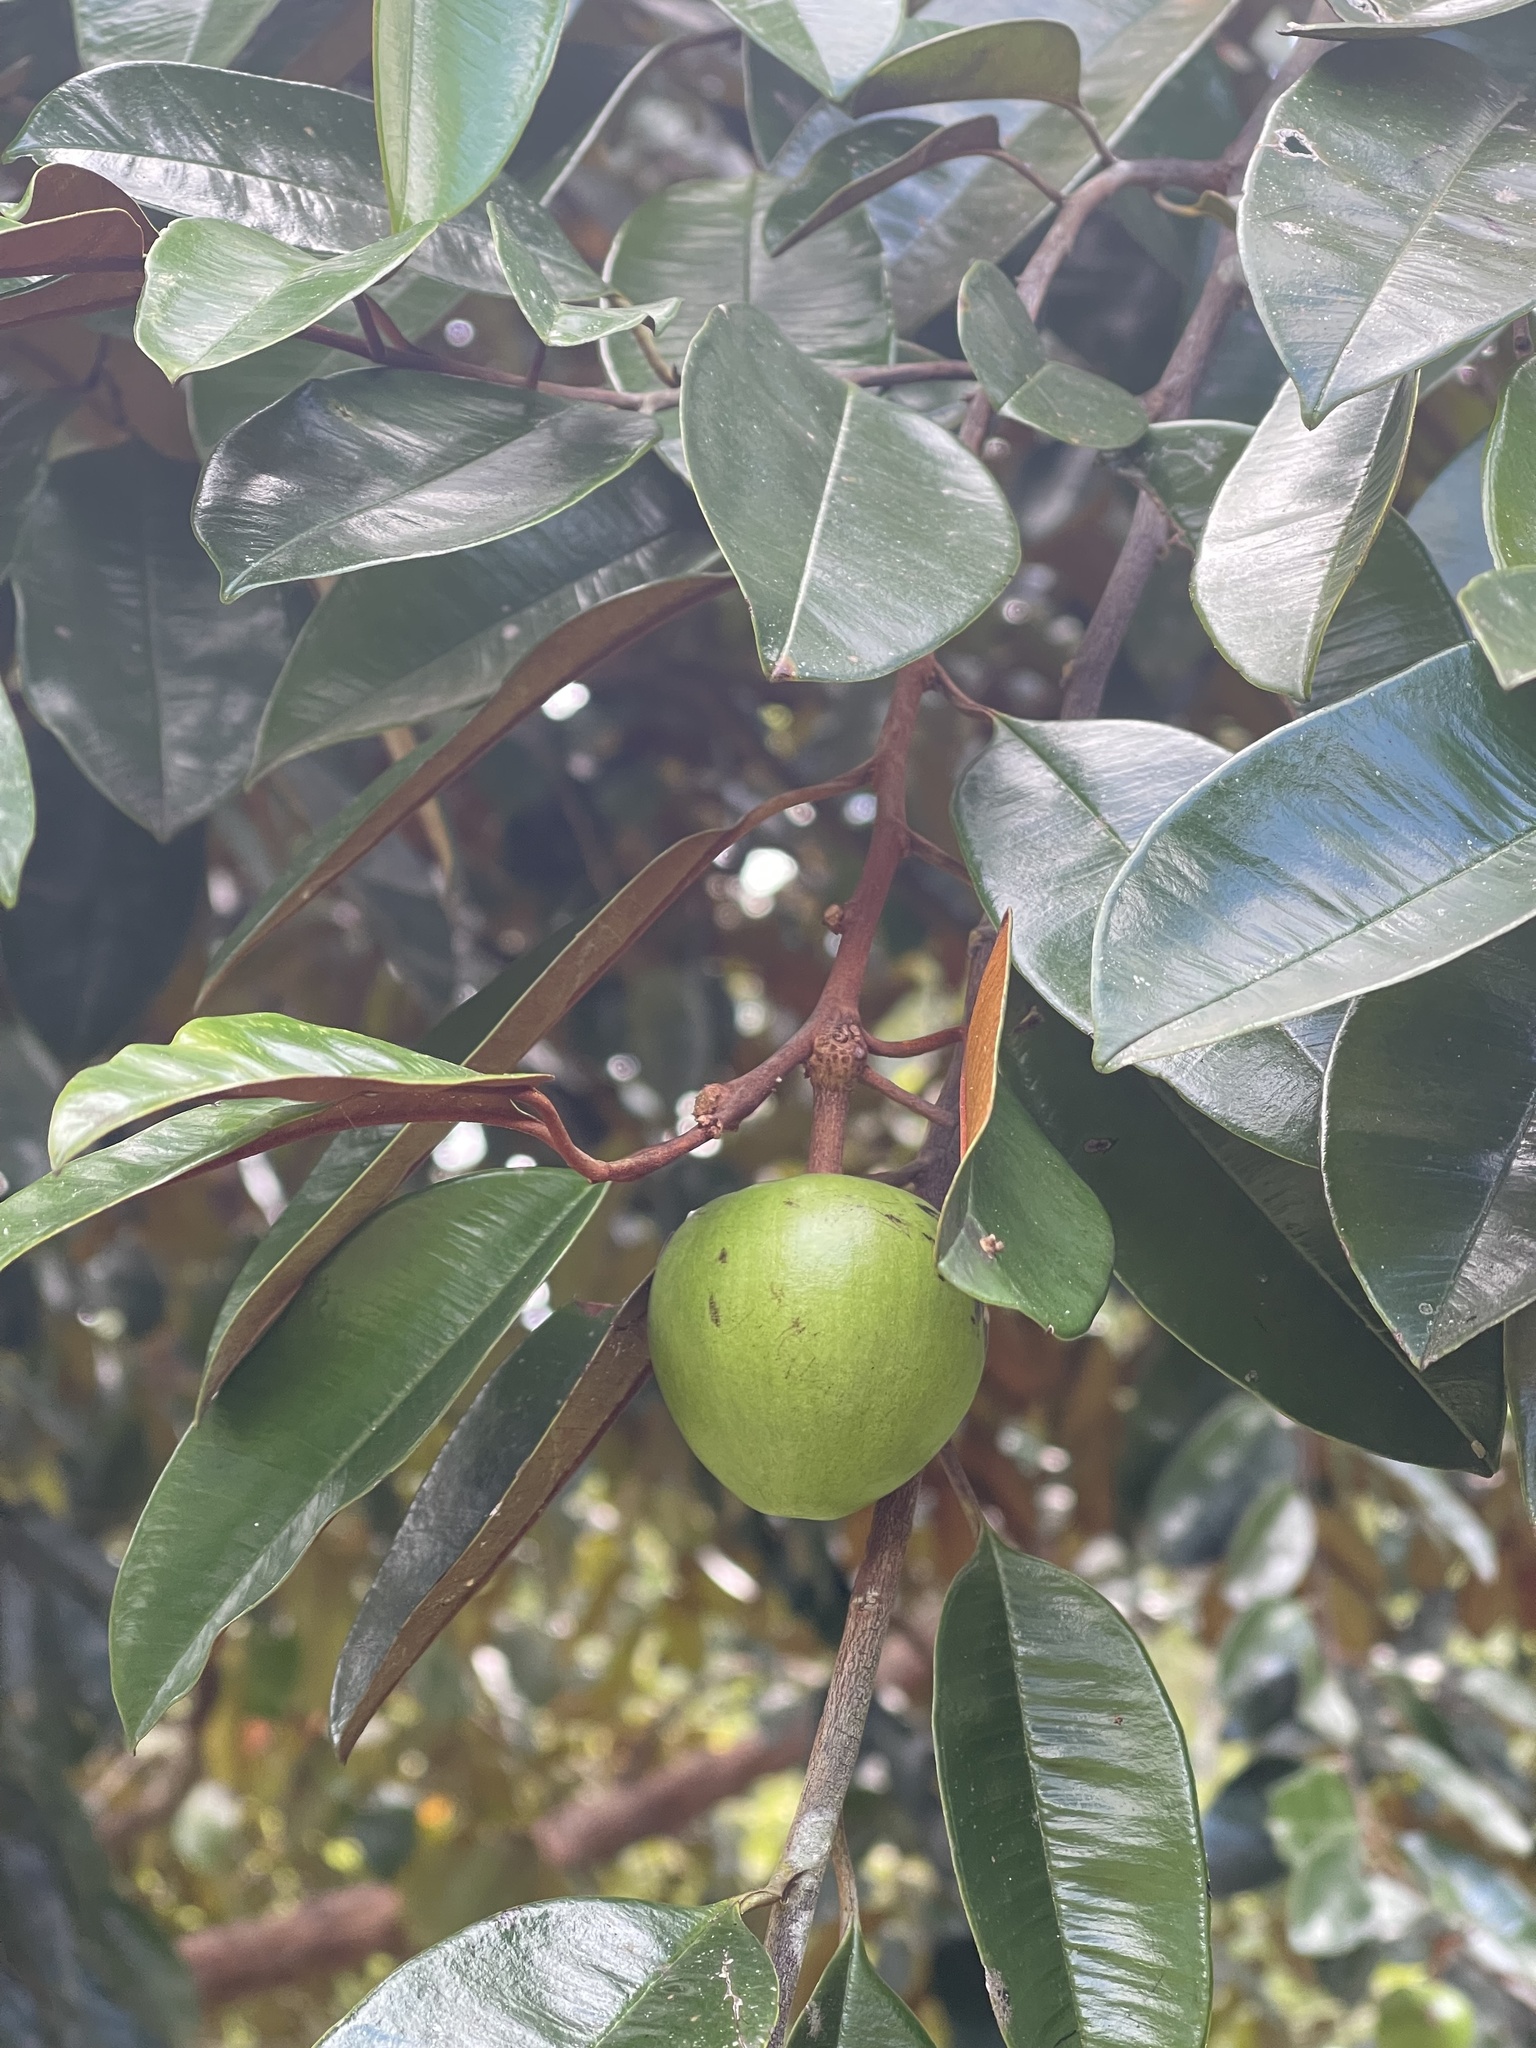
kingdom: Plantae
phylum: Tracheophyta
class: Magnoliopsida
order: Ericales
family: Sapotaceae
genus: Chrysophyllum
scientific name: Chrysophyllum cainito
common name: Star-apple
